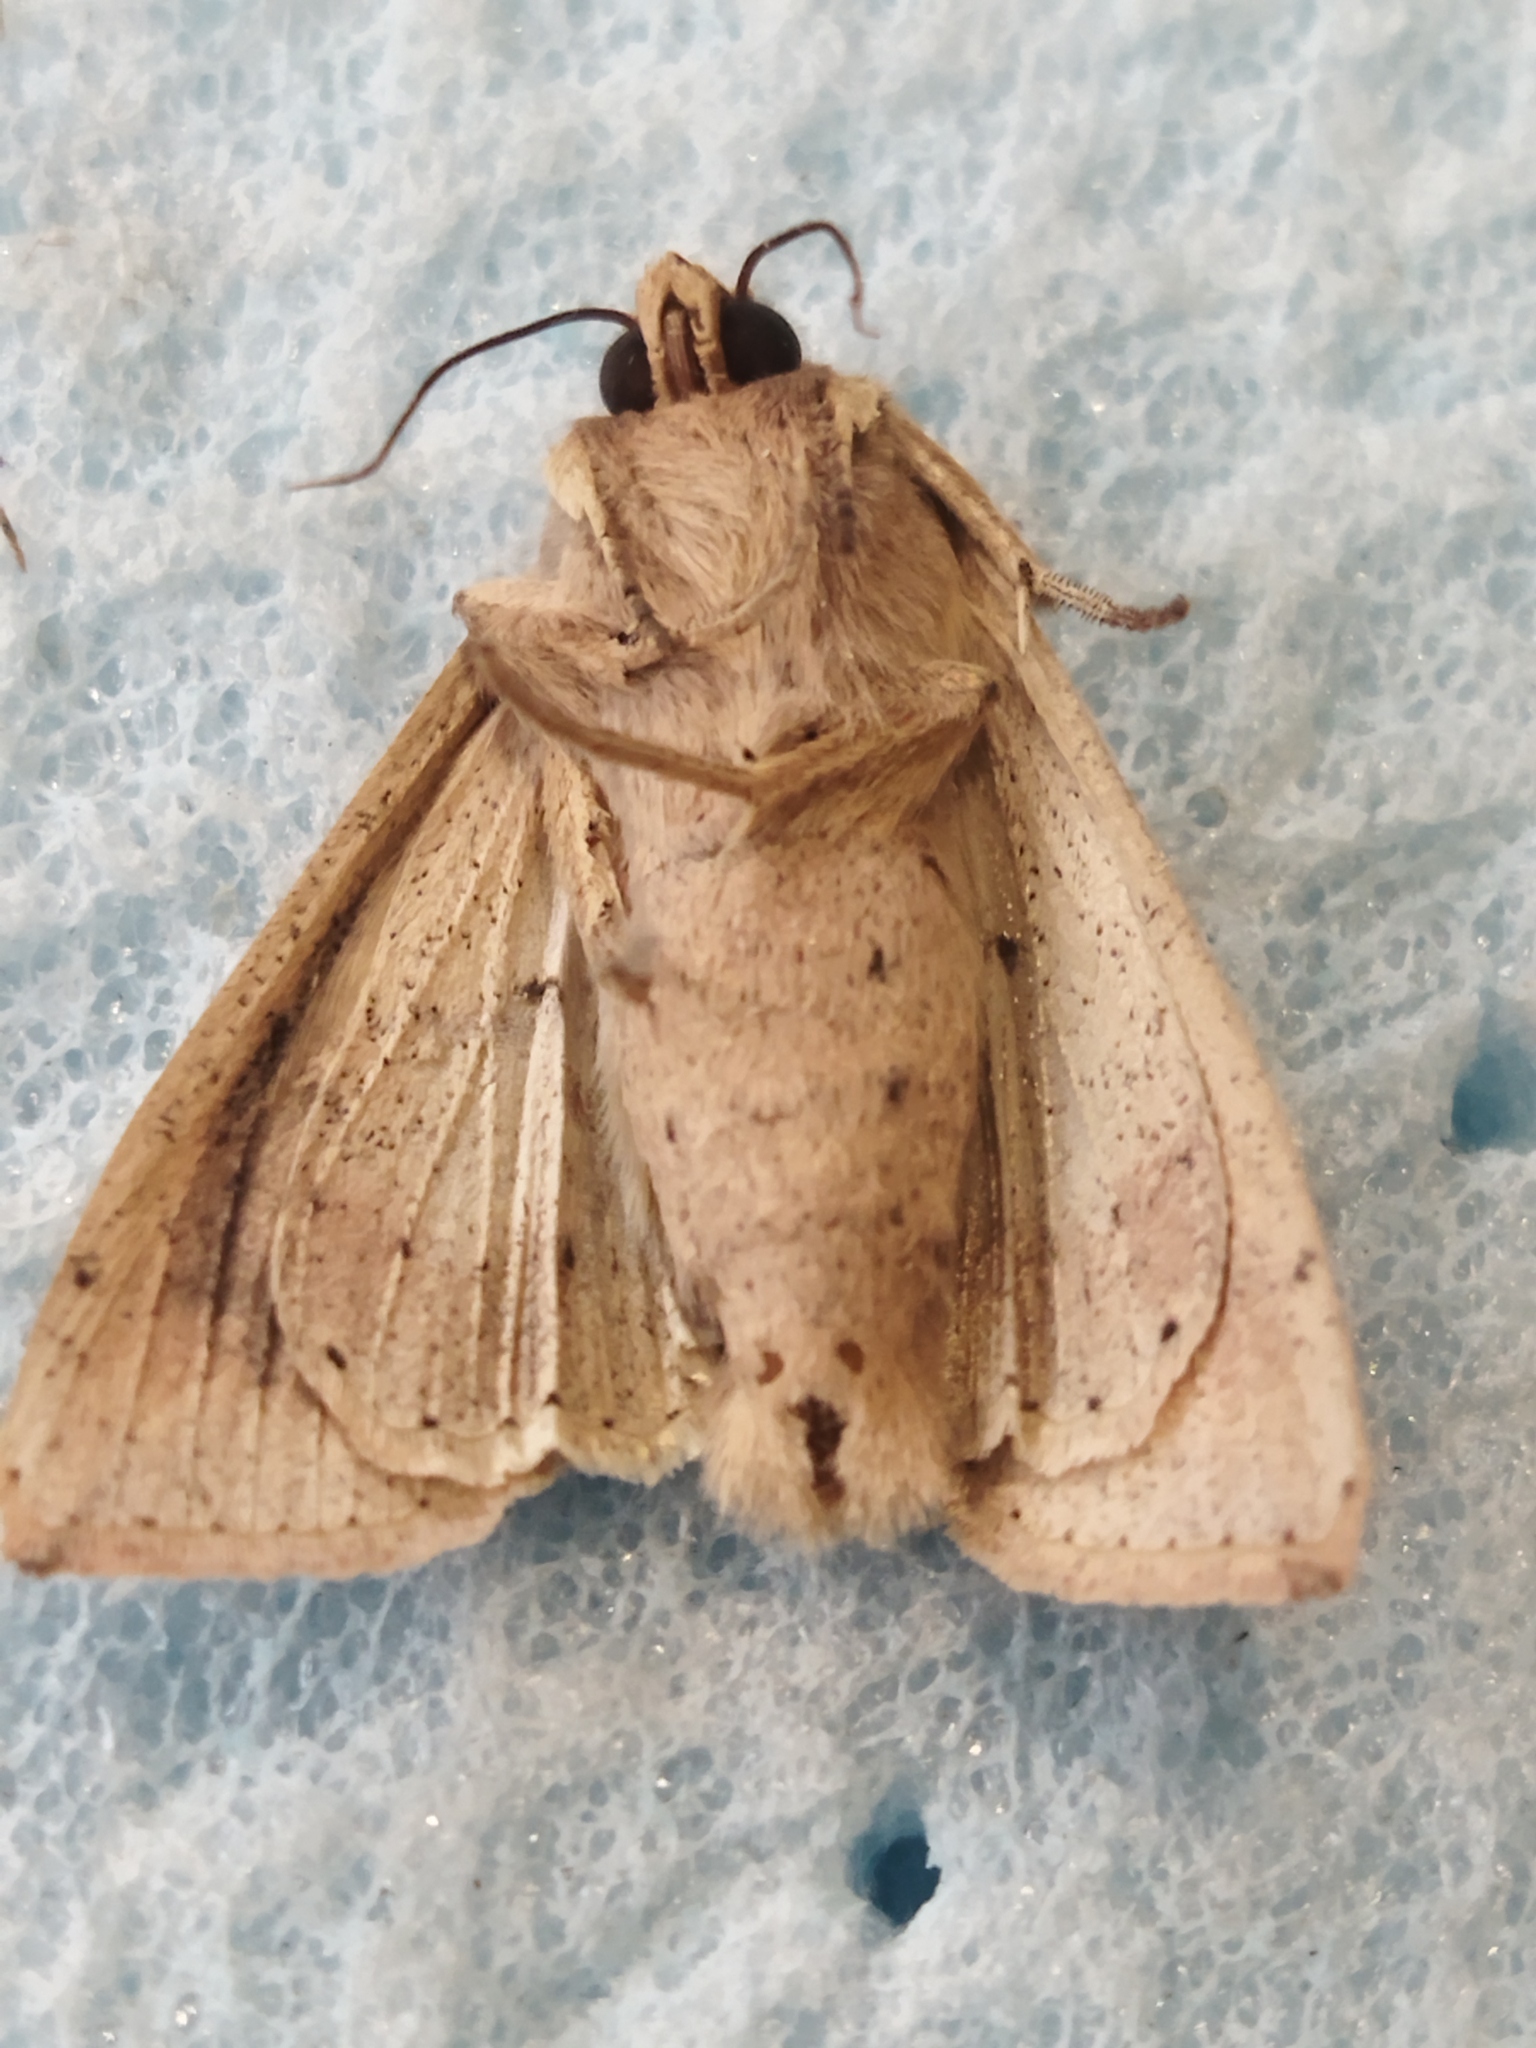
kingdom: Animalia
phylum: Arthropoda
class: Insecta
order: Lepidoptera
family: Noctuidae
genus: Mythimna
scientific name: Mythimna unipuncta
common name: White-speck
